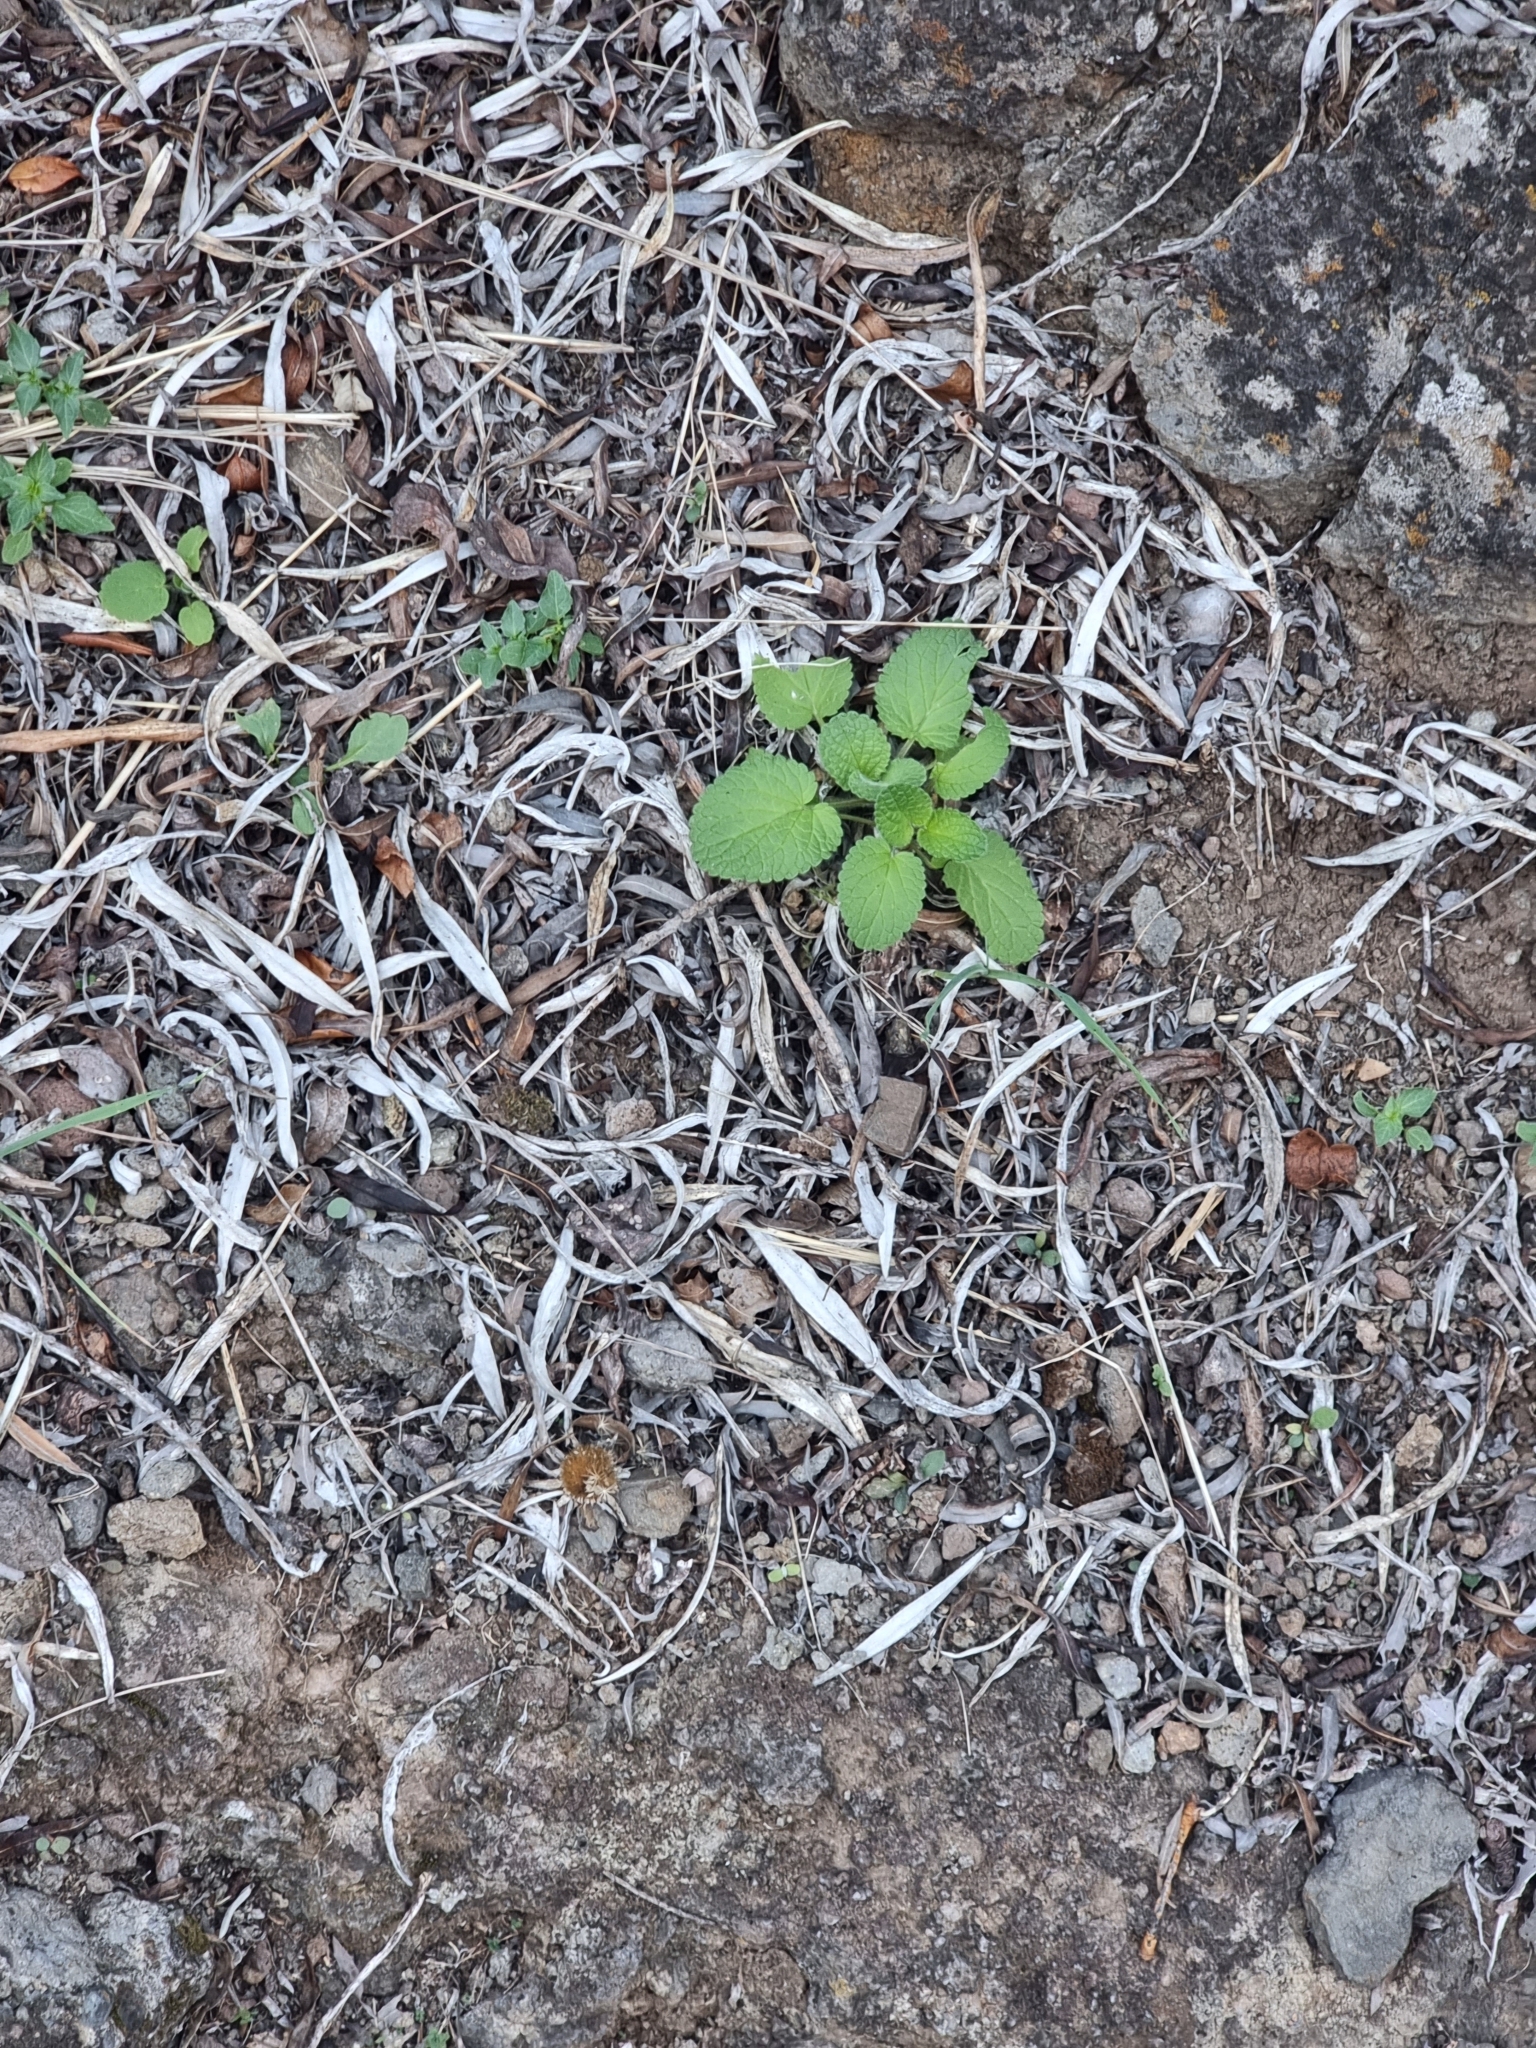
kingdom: Plantae
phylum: Tracheophyta
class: Magnoliopsida
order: Lamiales
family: Lamiaceae
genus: Stachys
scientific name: Stachys ocymastrum
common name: Italian hedgenettle
